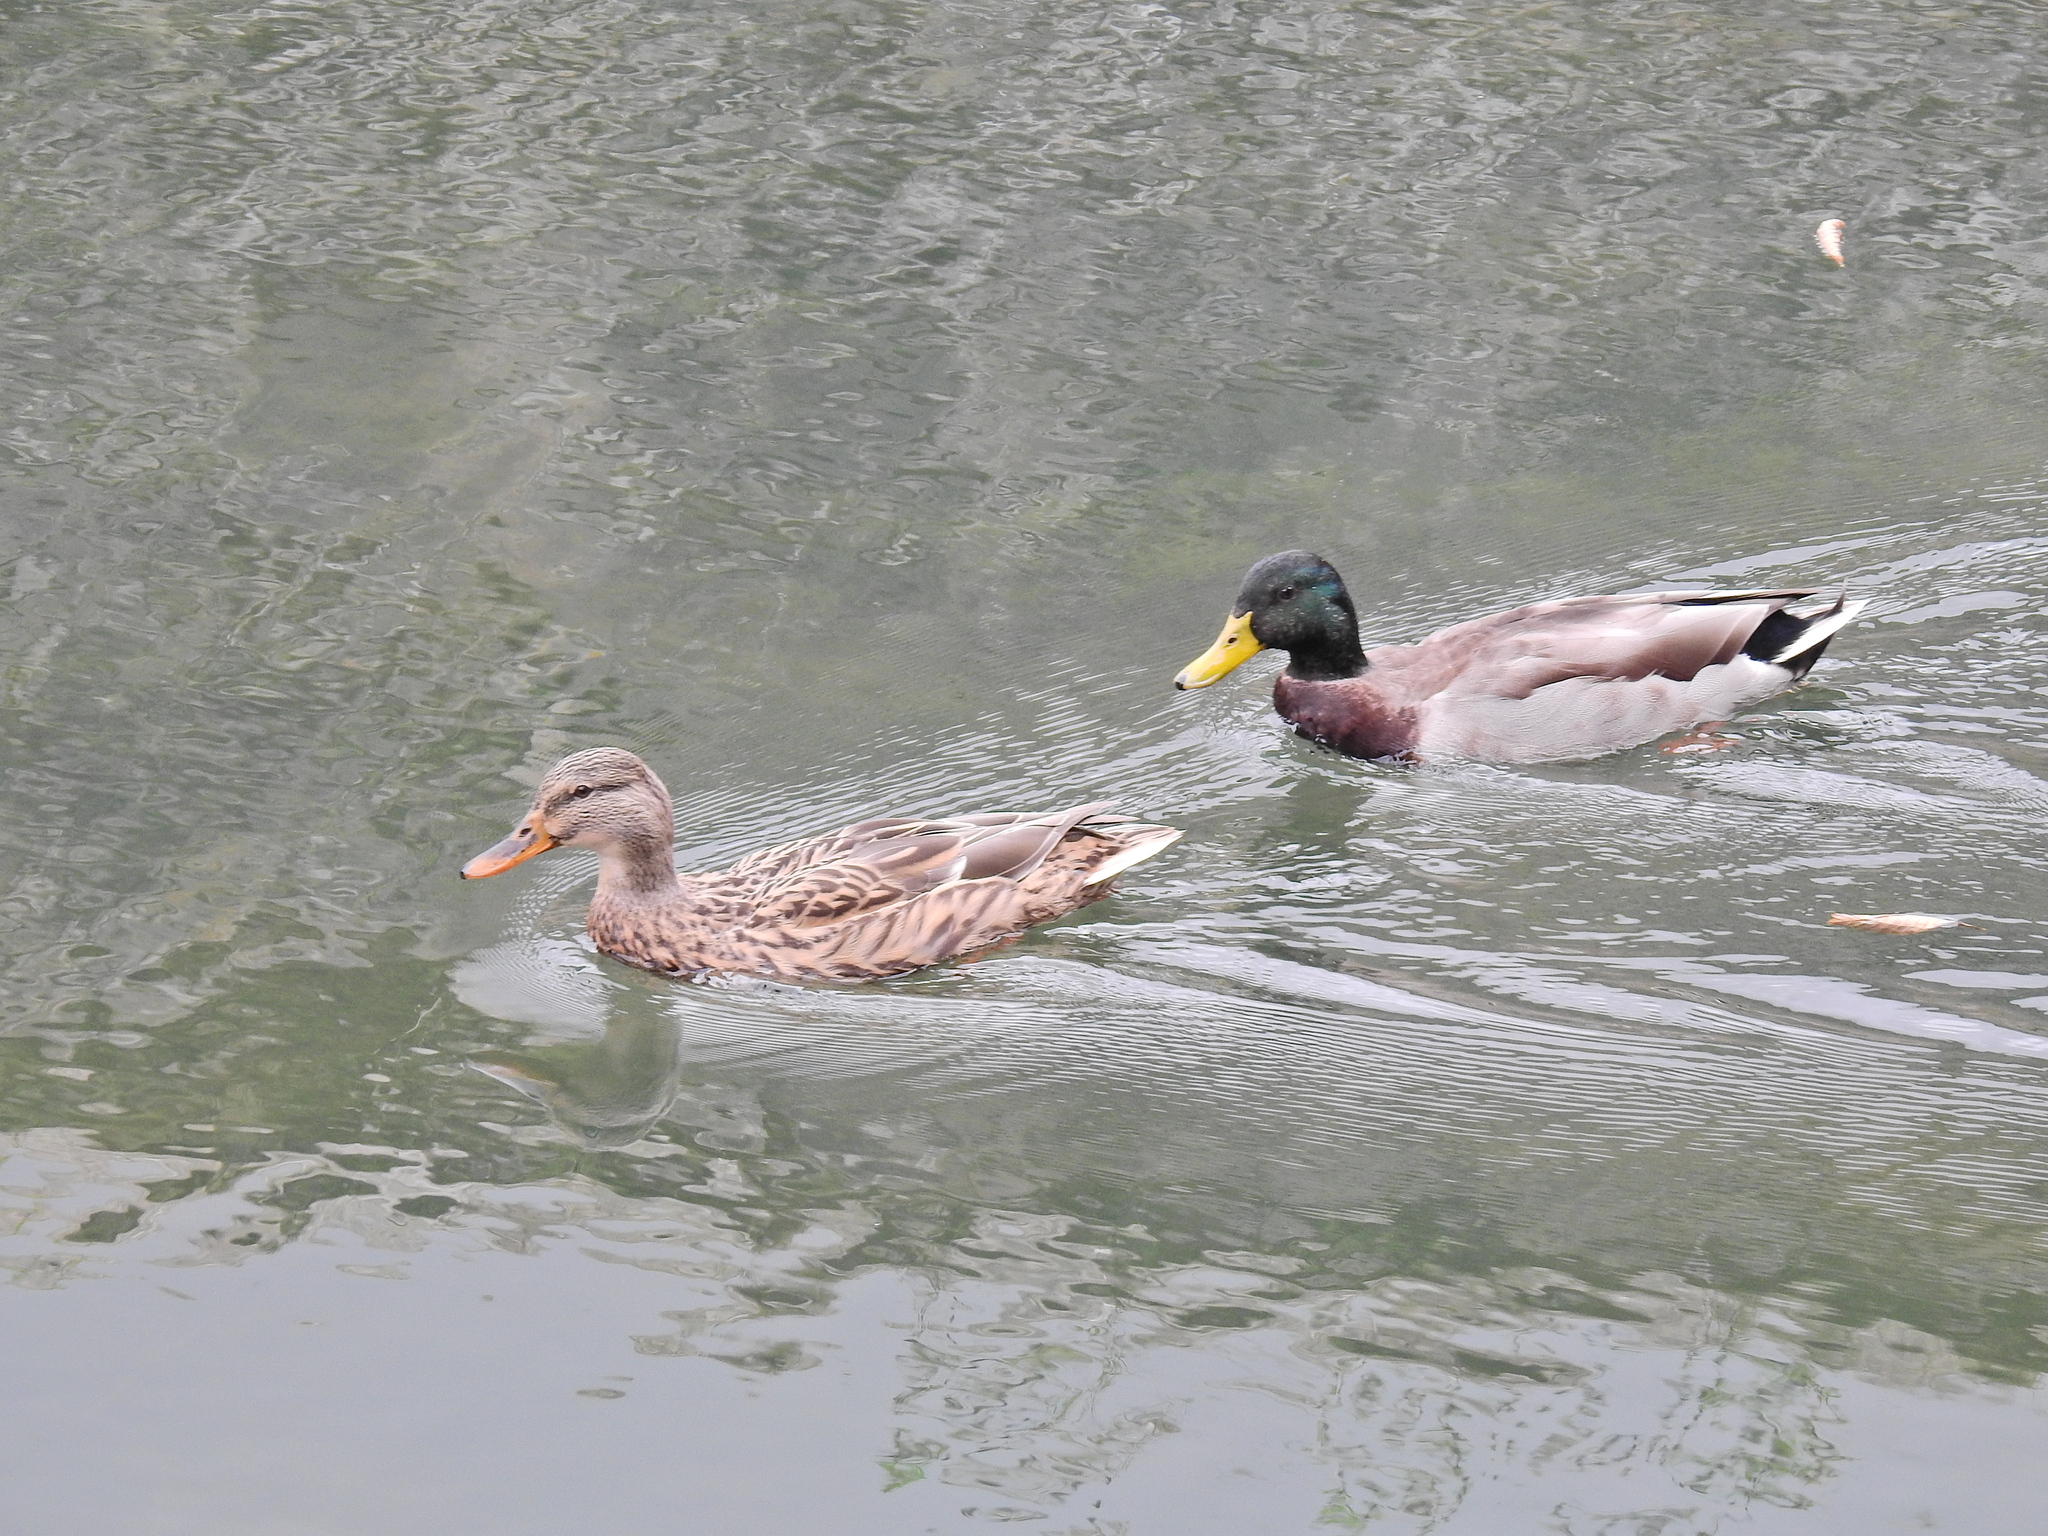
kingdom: Animalia
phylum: Chordata
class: Aves
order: Anseriformes
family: Anatidae
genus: Anas
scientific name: Anas platyrhynchos
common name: Mallard
